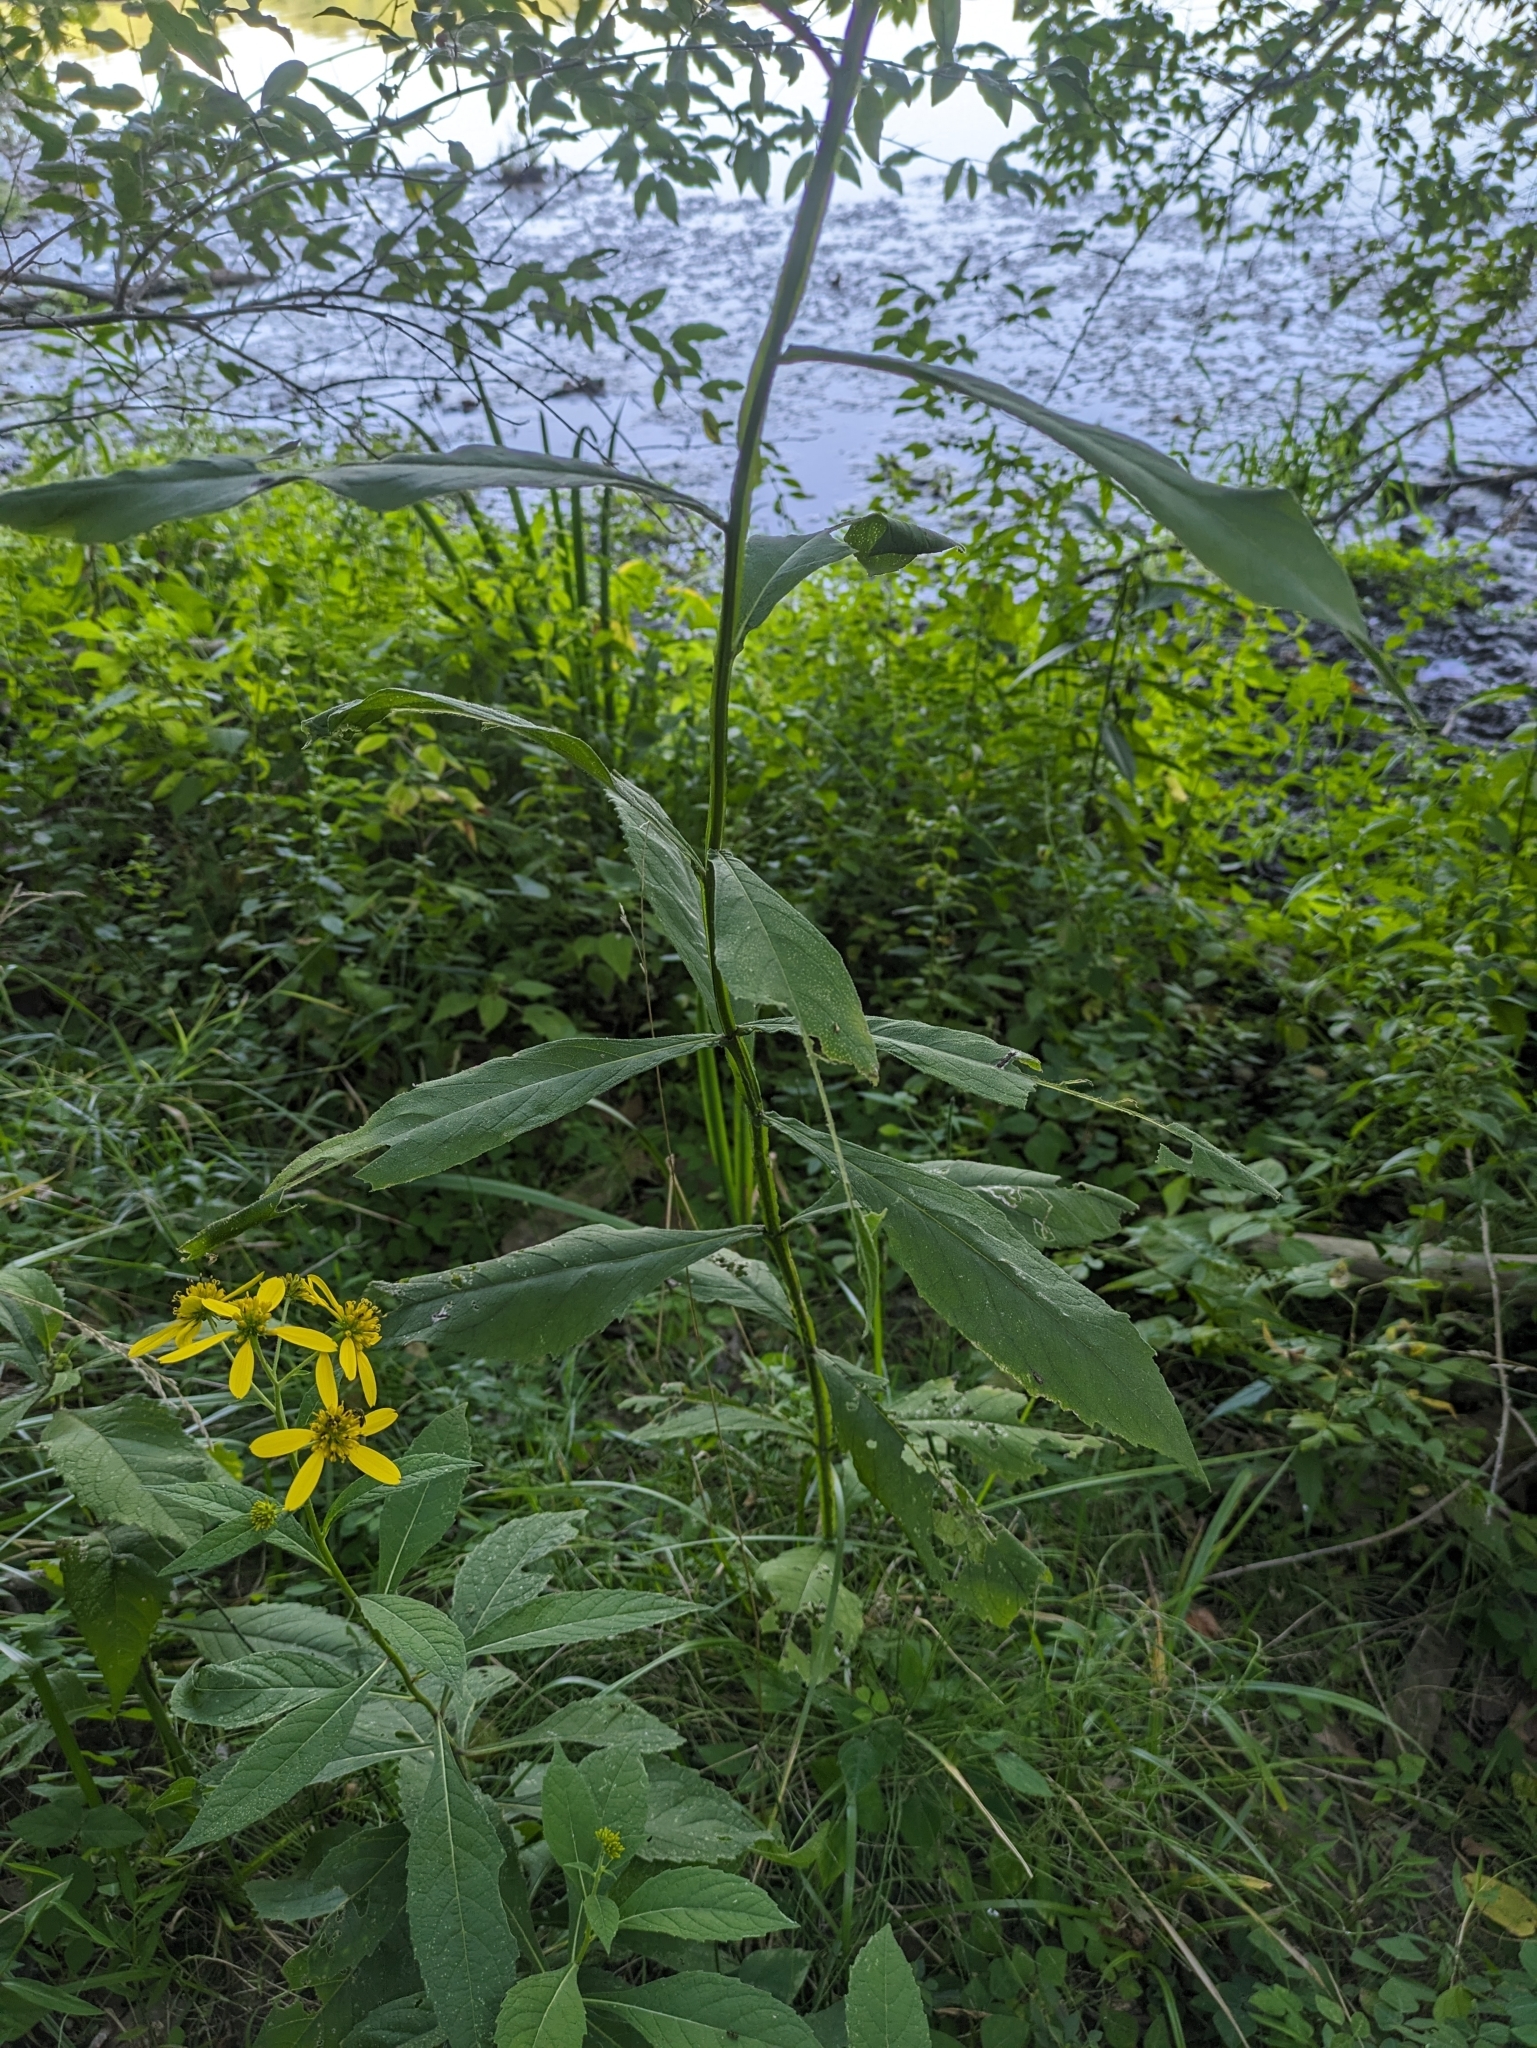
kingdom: Plantae
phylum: Tracheophyta
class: Magnoliopsida
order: Asterales
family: Asteraceae
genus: Verbesina
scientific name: Verbesina alternifolia
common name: Wingstem
